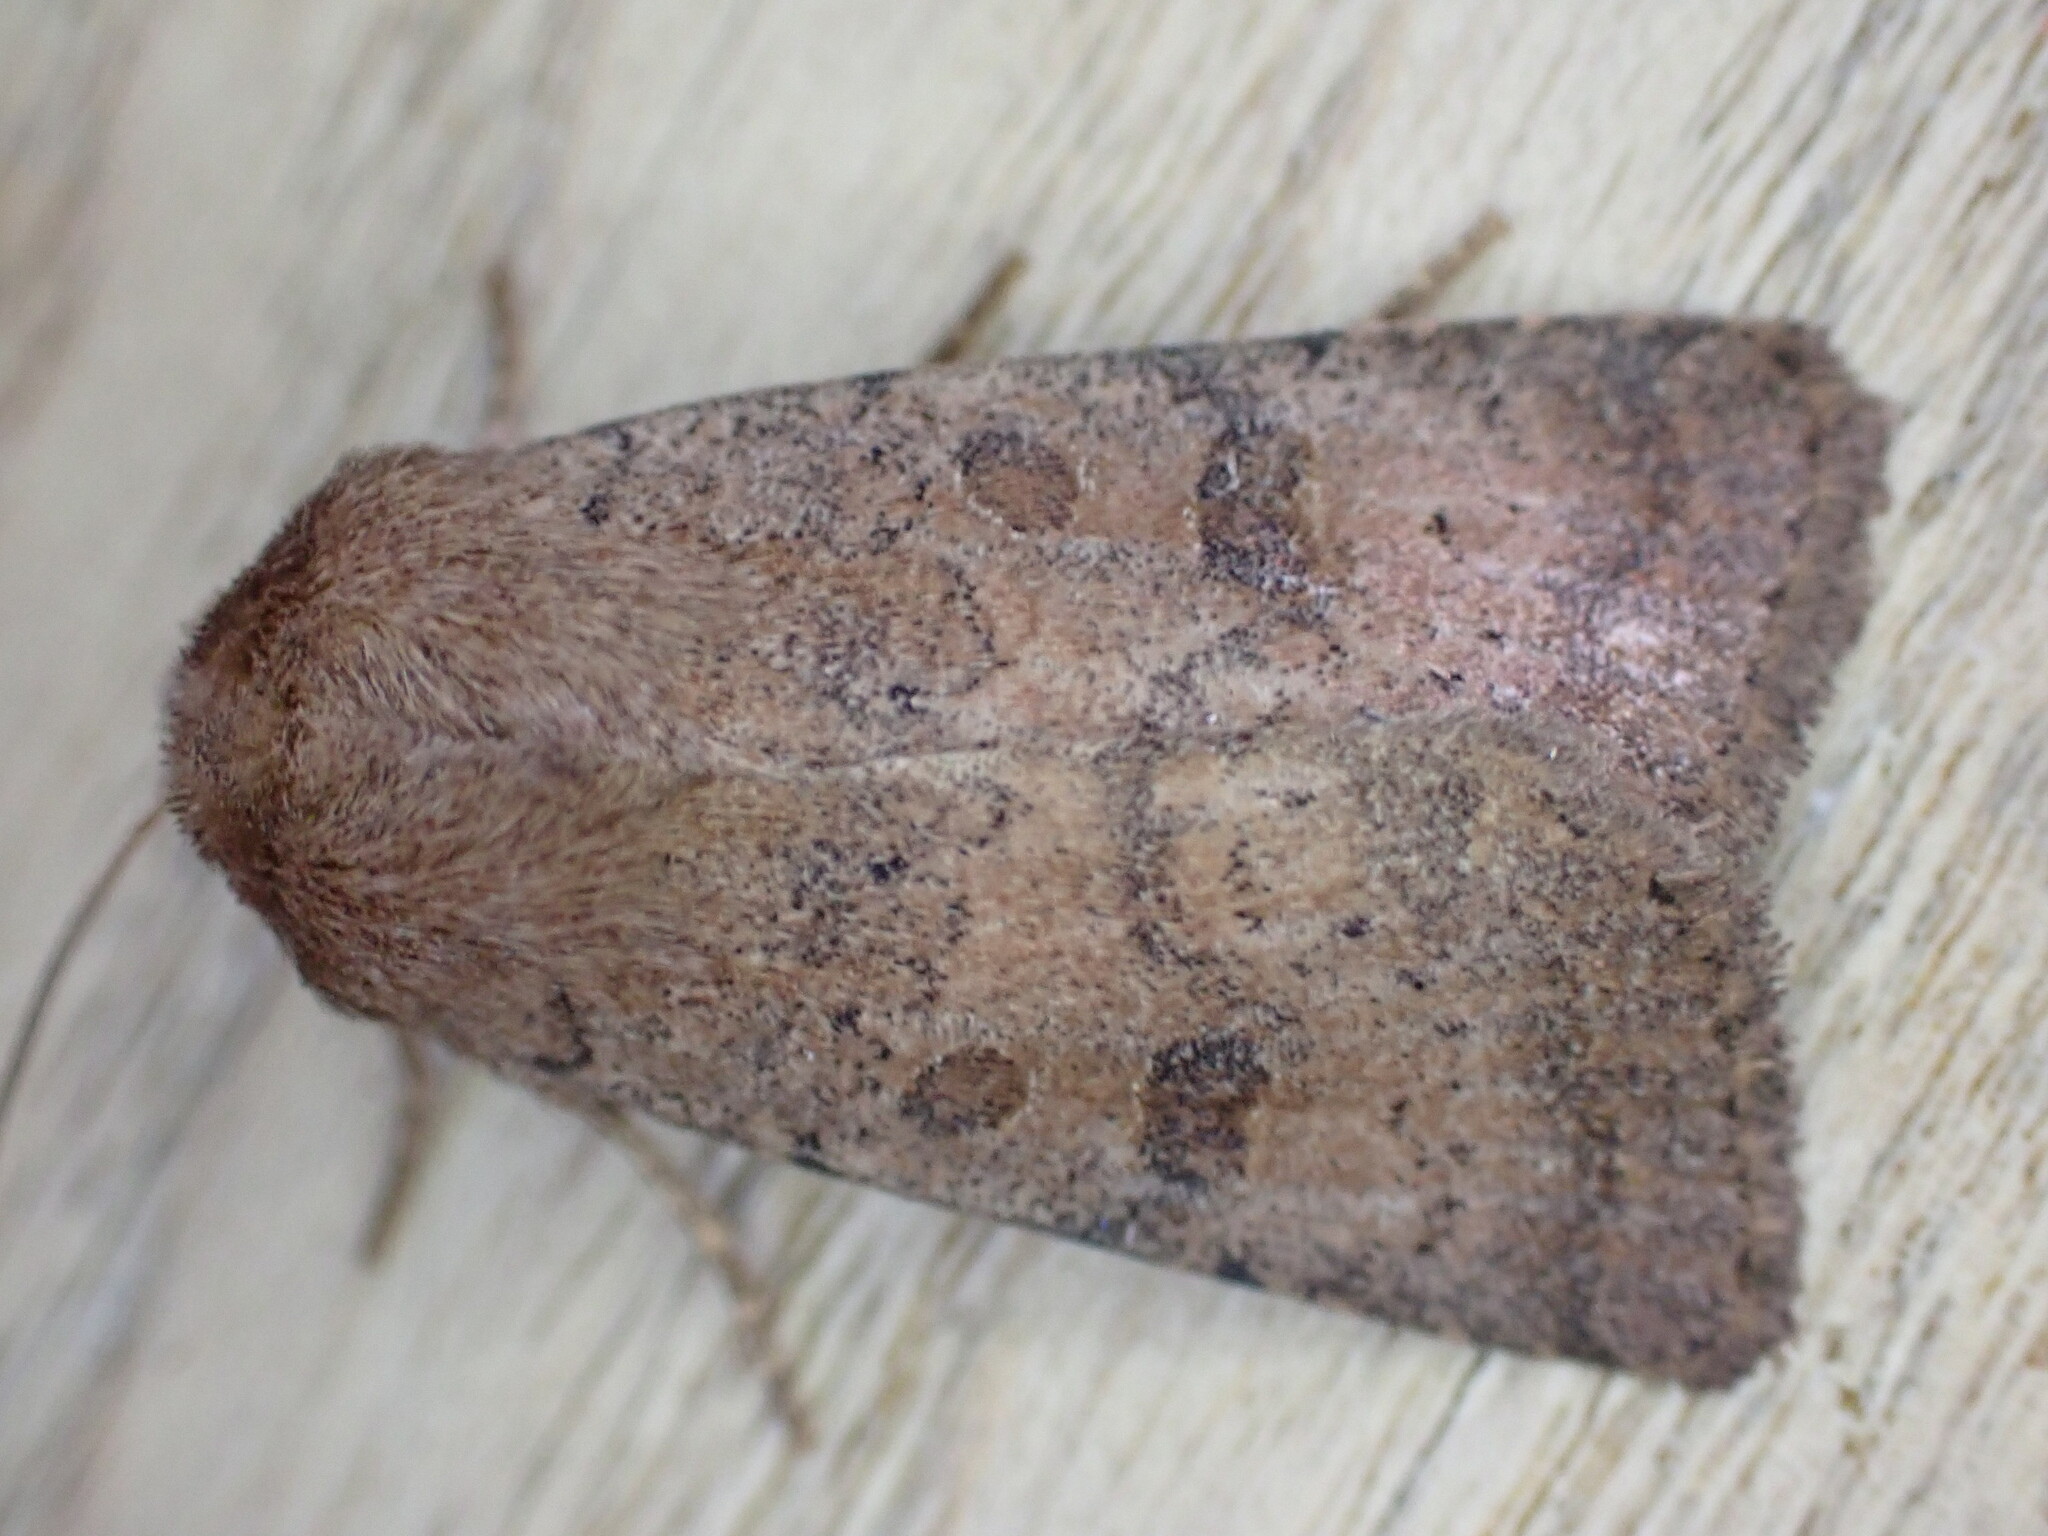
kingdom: Animalia
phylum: Arthropoda
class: Insecta
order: Lepidoptera
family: Noctuidae
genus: Hoplodrina
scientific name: Hoplodrina octogenaria
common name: Uncertain
